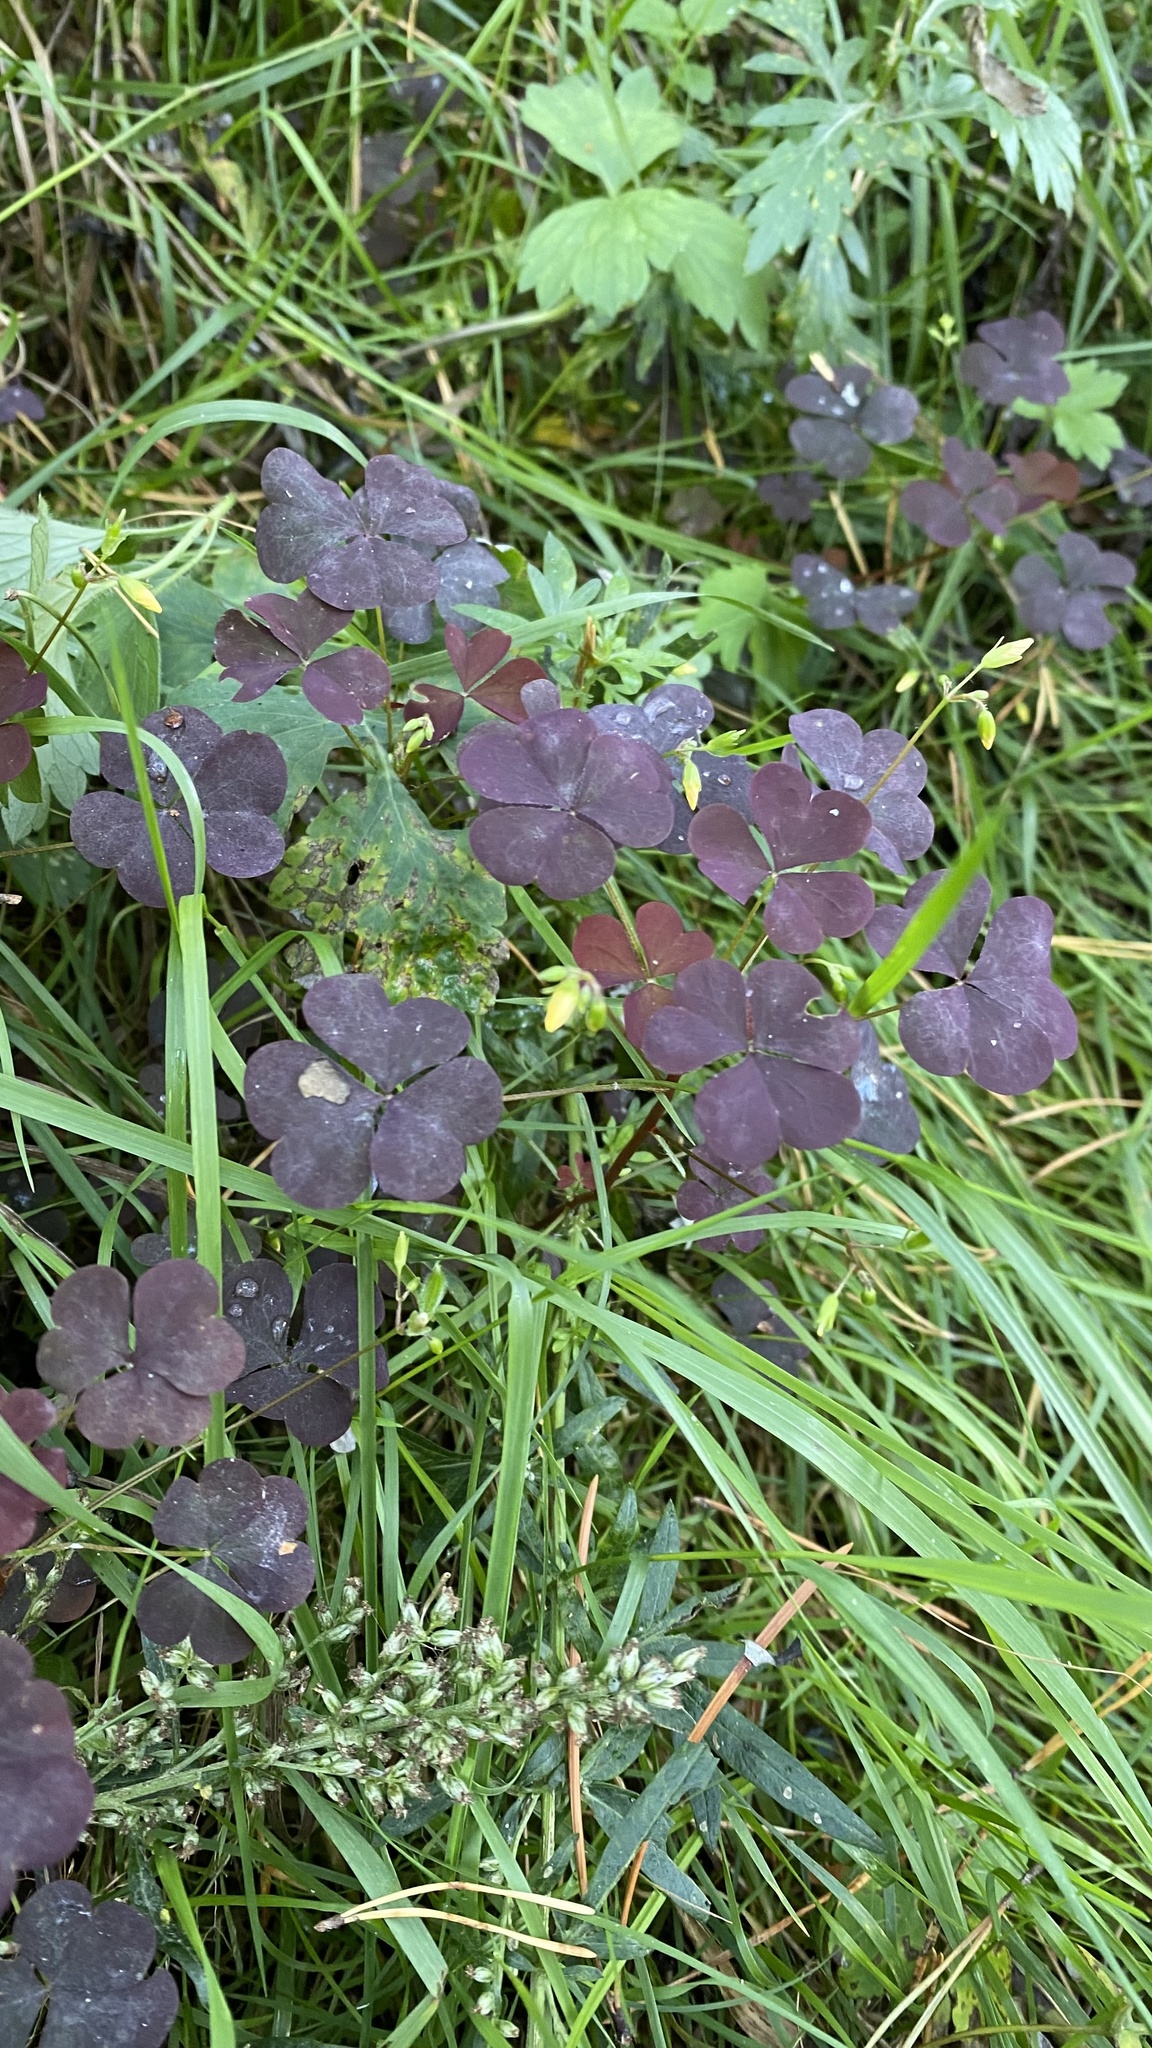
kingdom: Plantae
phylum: Tracheophyta
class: Magnoliopsida
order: Oxalidales
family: Oxalidaceae
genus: Oxalis
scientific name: Oxalis stricta
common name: Upright yellow-sorrel
